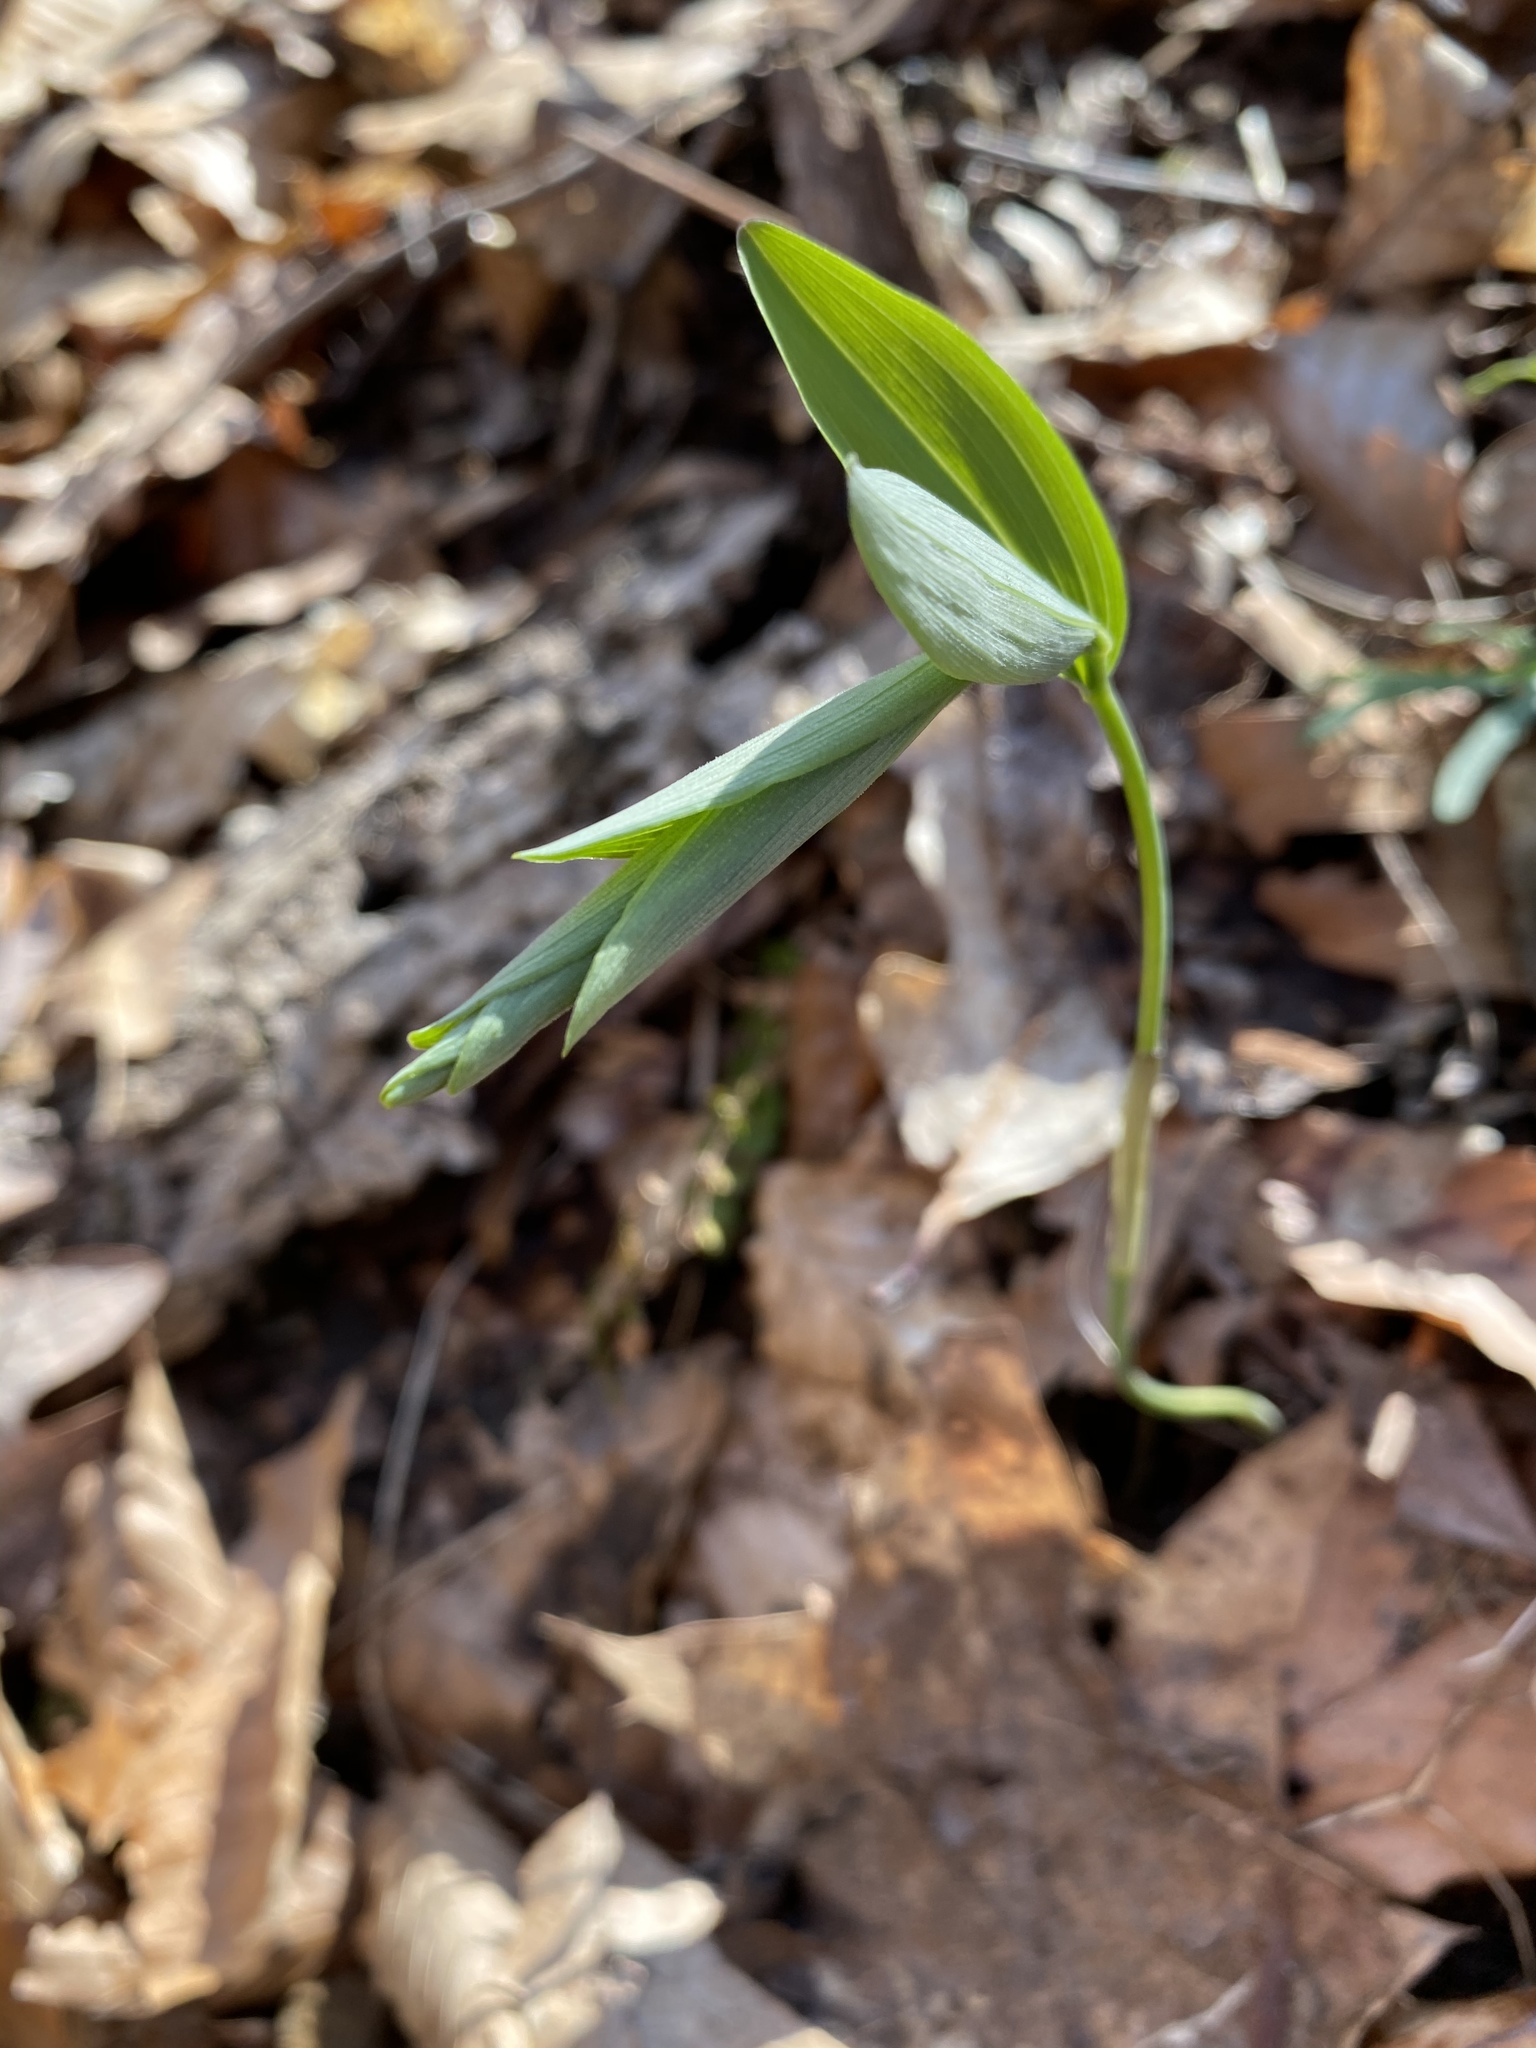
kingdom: Plantae
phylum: Tracheophyta
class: Liliopsida
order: Asparagales
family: Asparagaceae
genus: Polygonatum
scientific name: Polygonatum pubescens
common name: Downy solomon's seal
